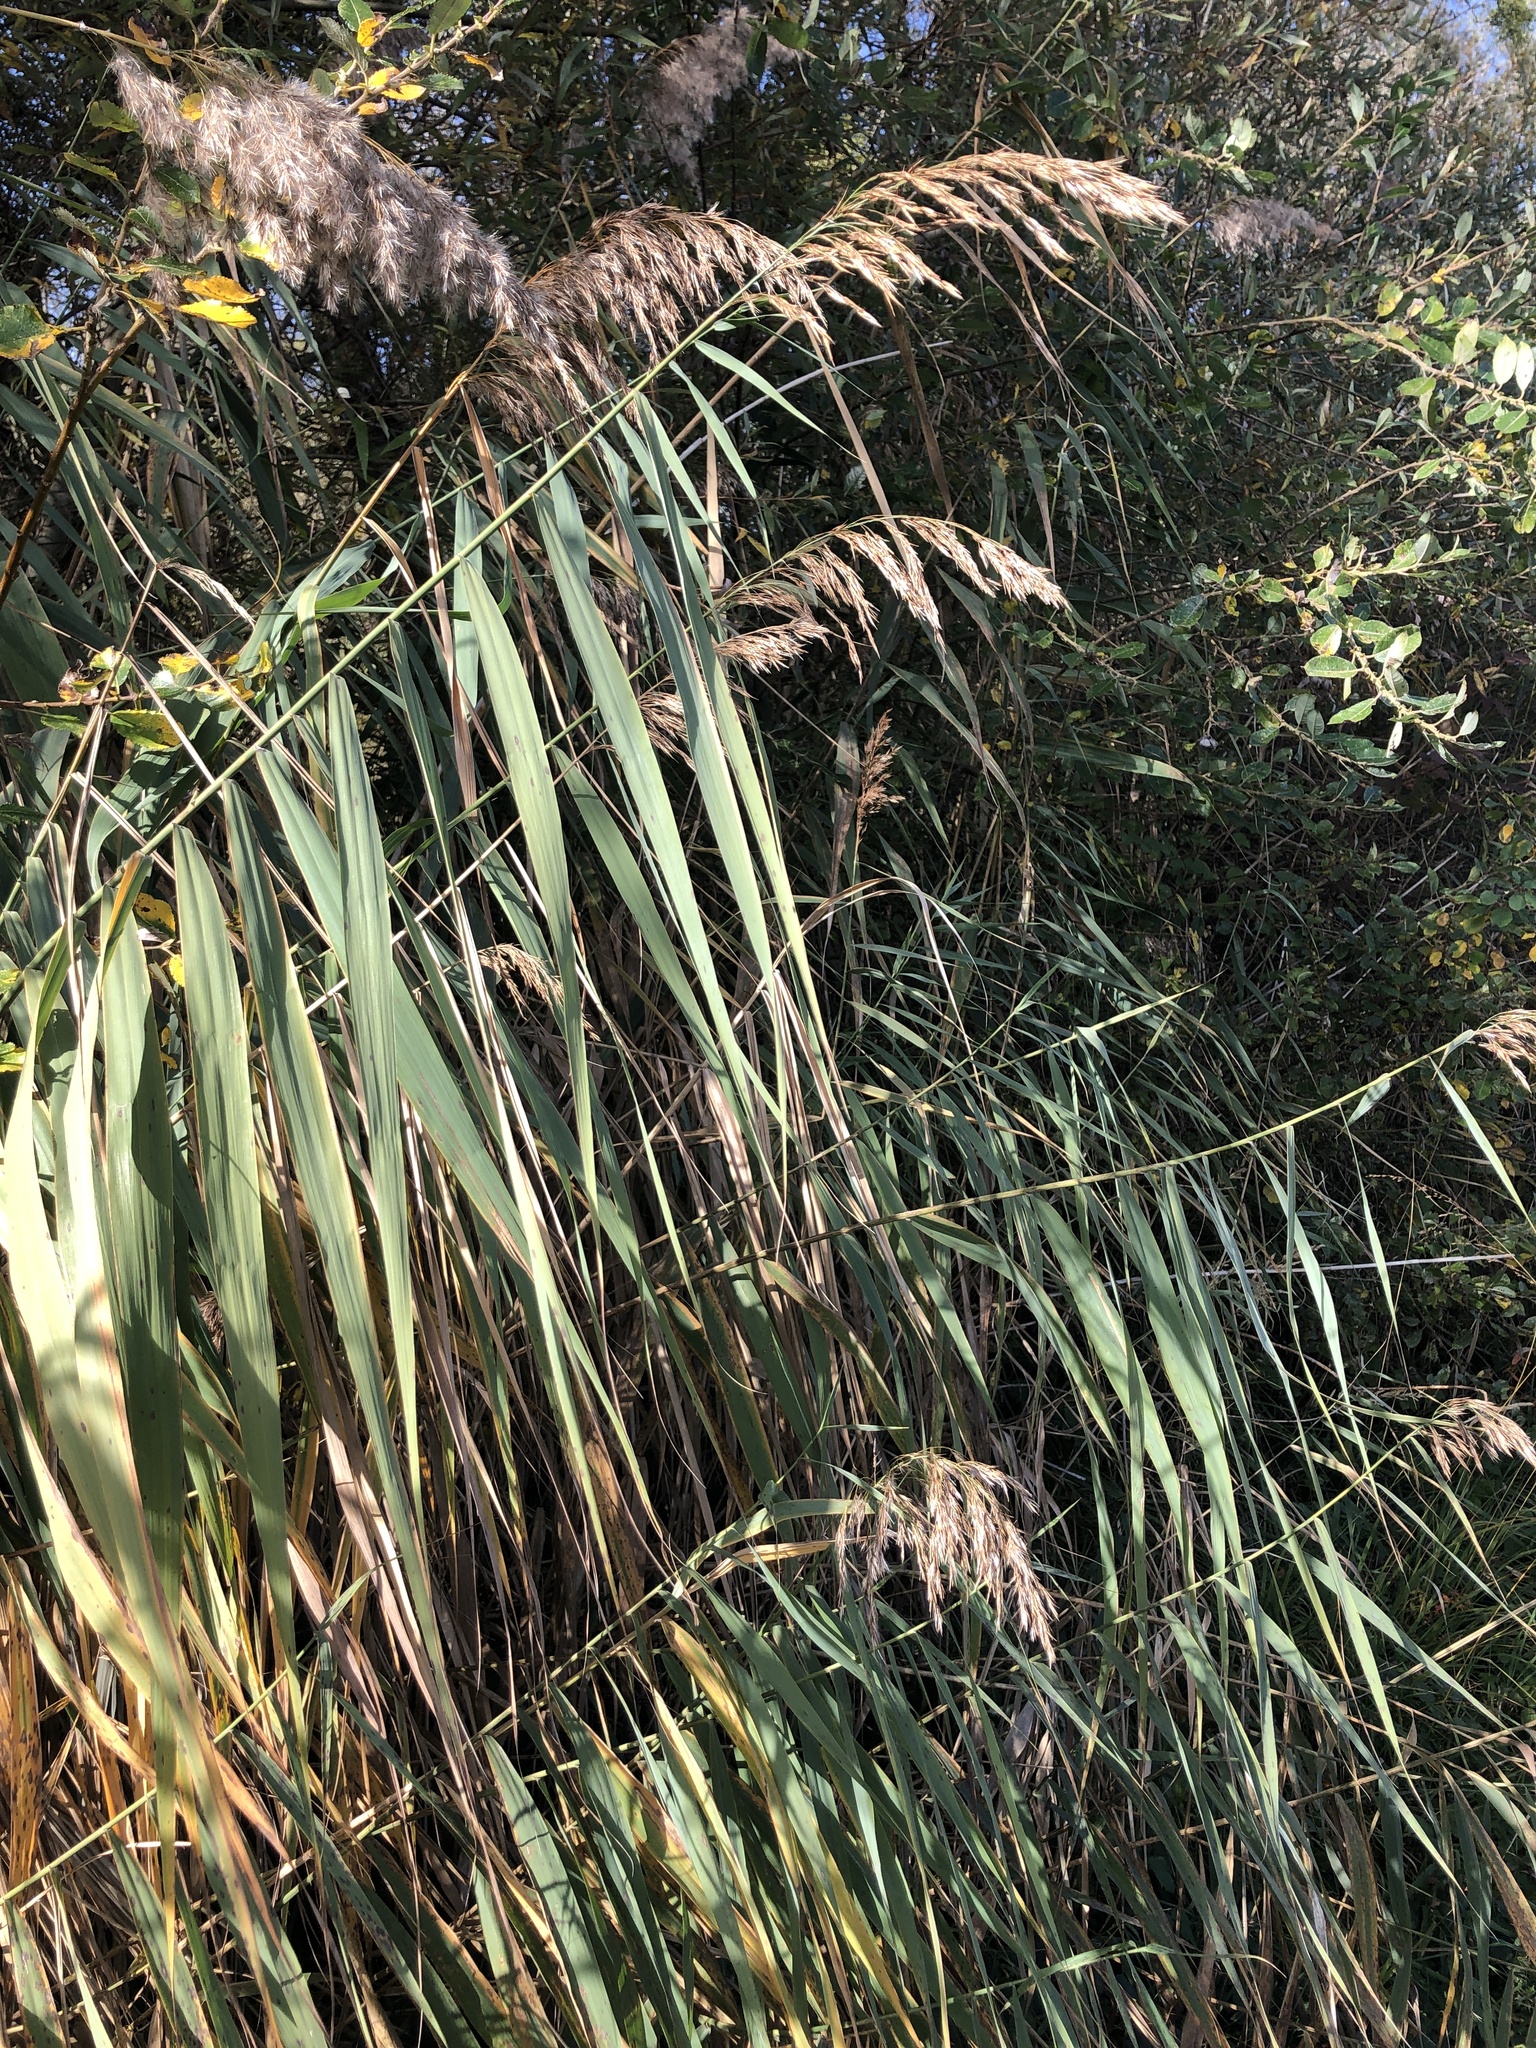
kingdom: Plantae
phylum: Tracheophyta
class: Liliopsida
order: Poales
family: Poaceae
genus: Phragmites
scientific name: Phragmites australis
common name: Common reed
